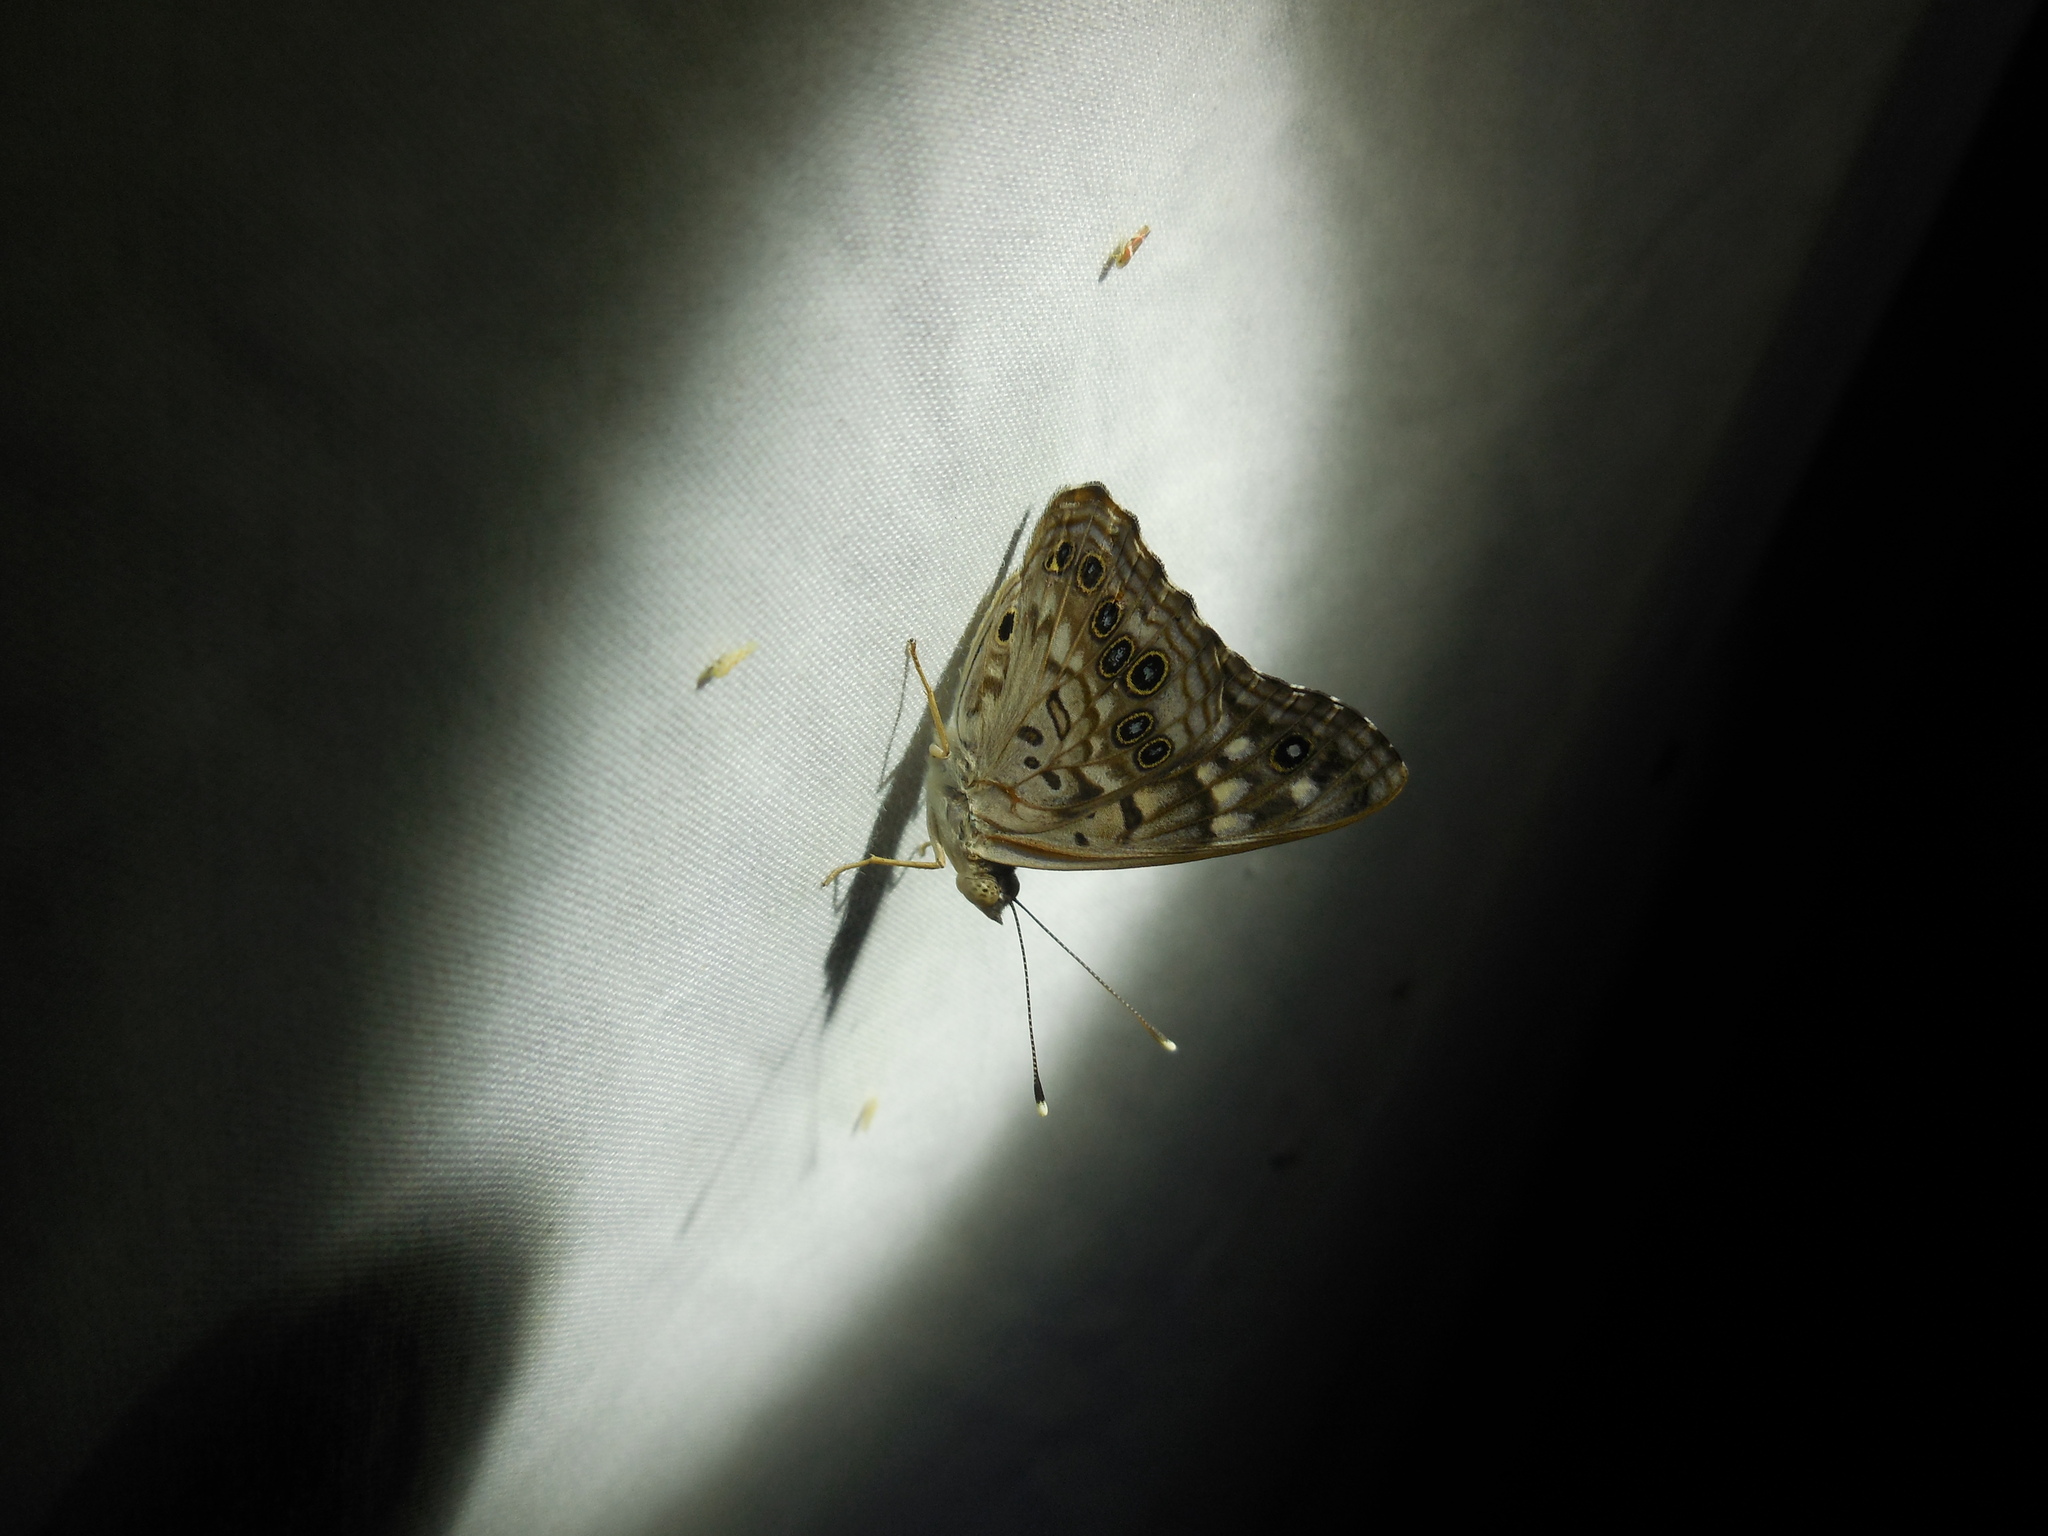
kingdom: Animalia
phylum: Arthropoda
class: Insecta
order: Lepidoptera
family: Nymphalidae
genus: Asterocampa
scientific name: Asterocampa celtis
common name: Hackberry emperor
